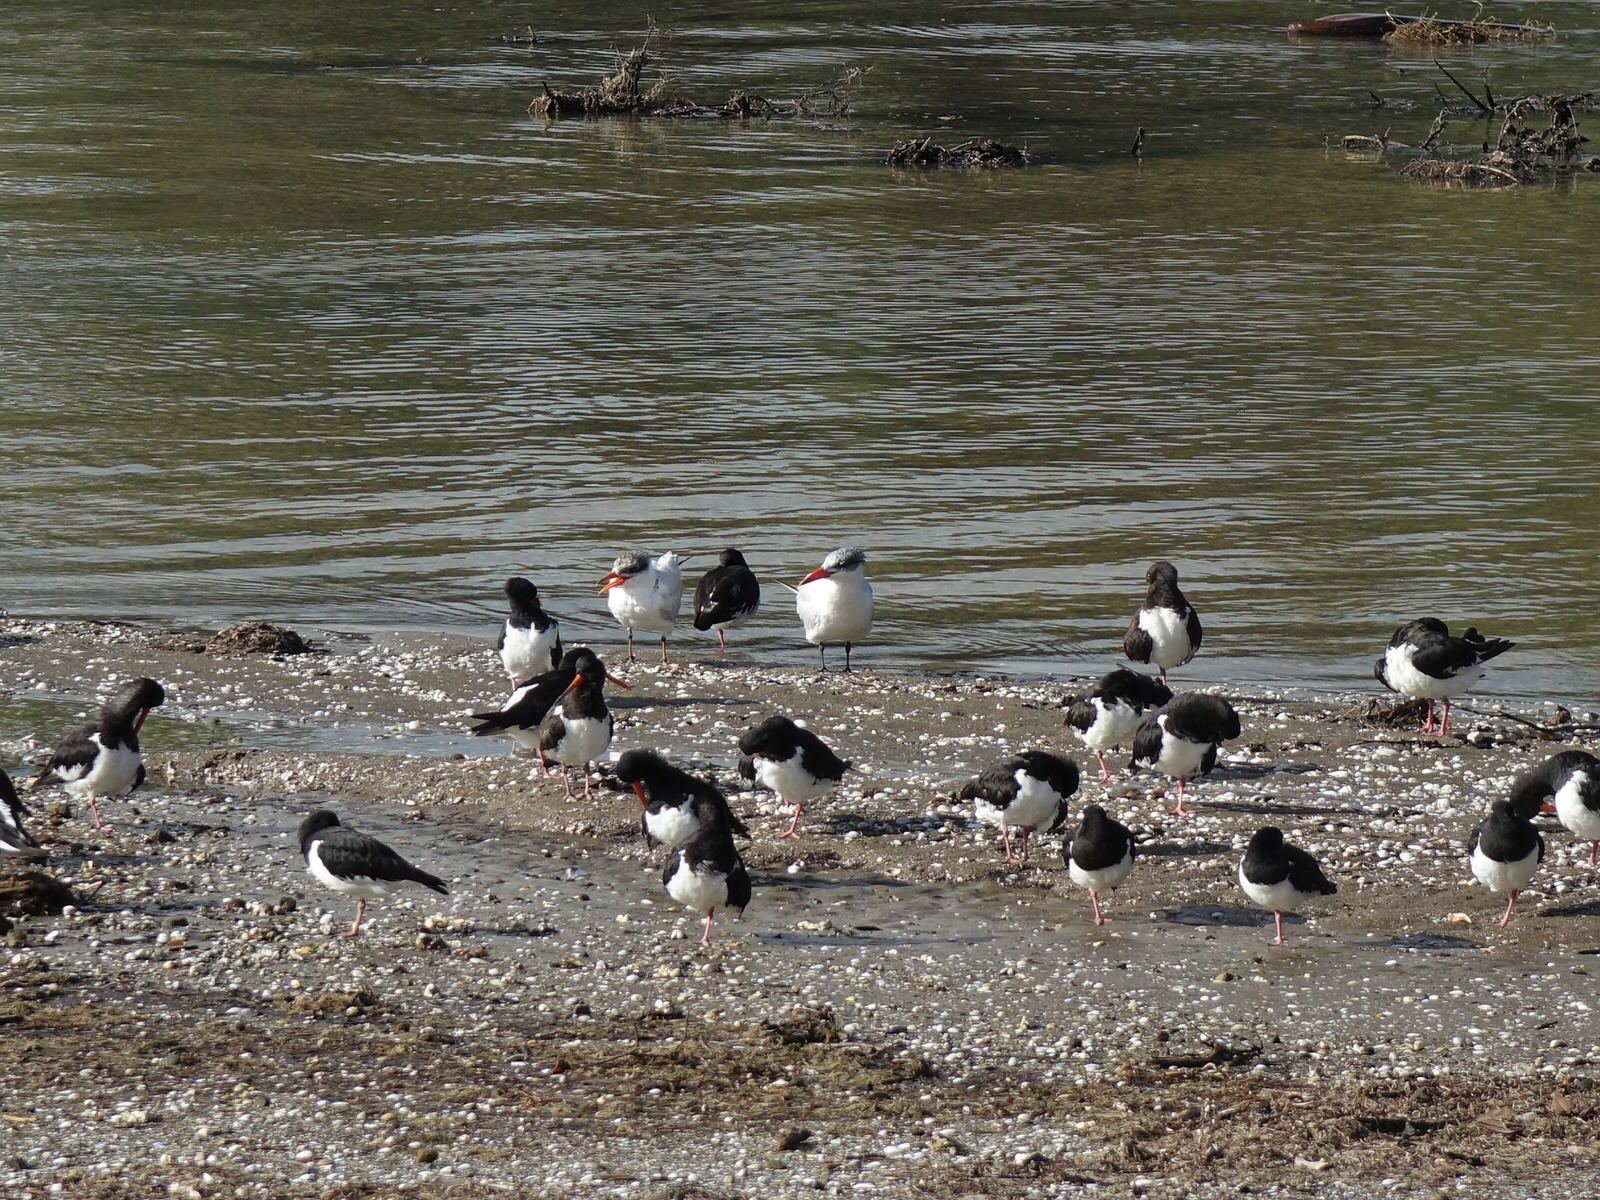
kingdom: Animalia
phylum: Chordata
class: Aves
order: Charadriiformes
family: Laridae
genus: Hydroprogne
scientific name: Hydroprogne caspia
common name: Caspian tern
